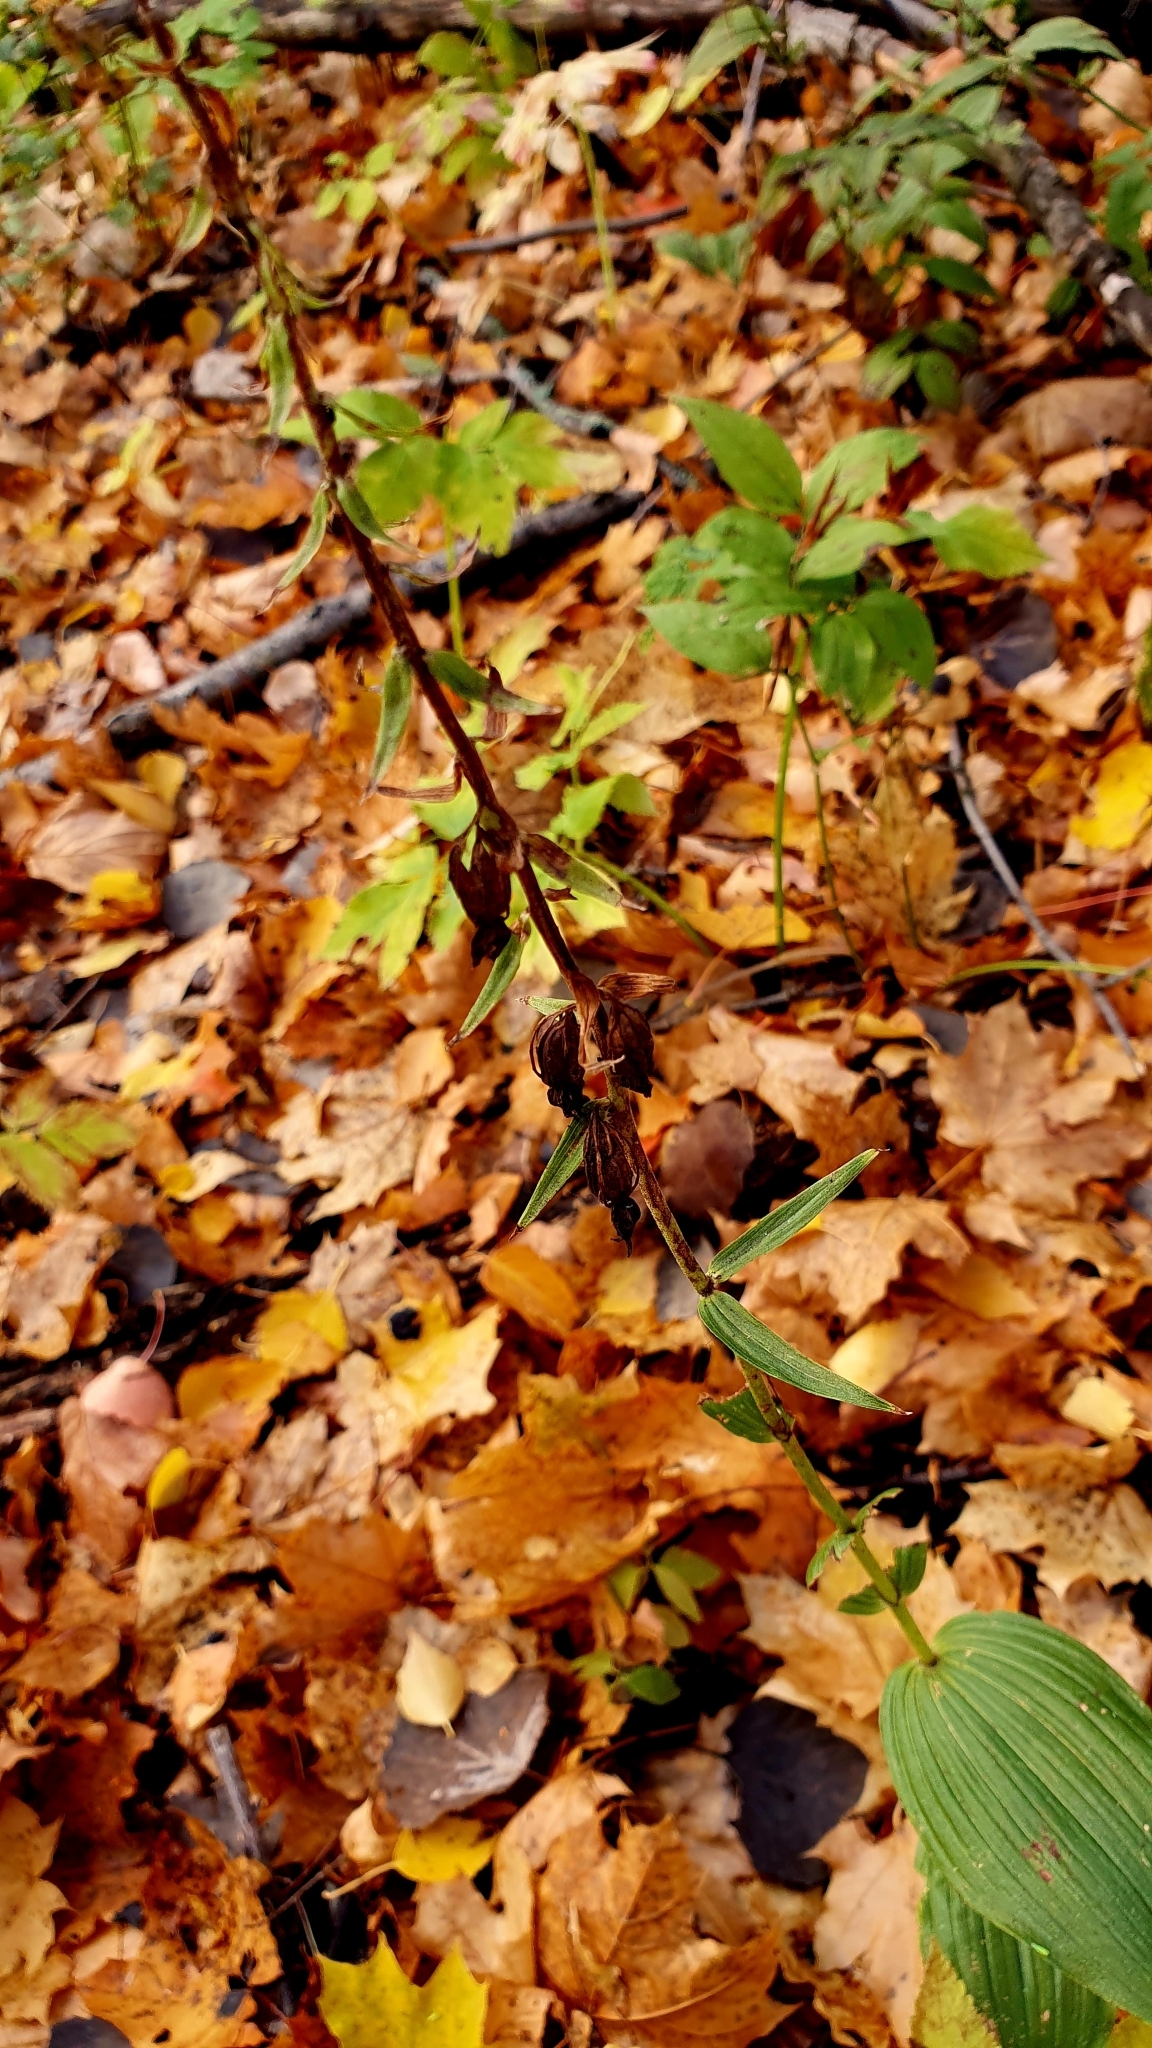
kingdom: Plantae
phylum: Tracheophyta
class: Liliopsida
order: Asparagales
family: Orchidaceae
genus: Epipactis
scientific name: Epipactis helleborine
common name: Broad-leaved helleborine
